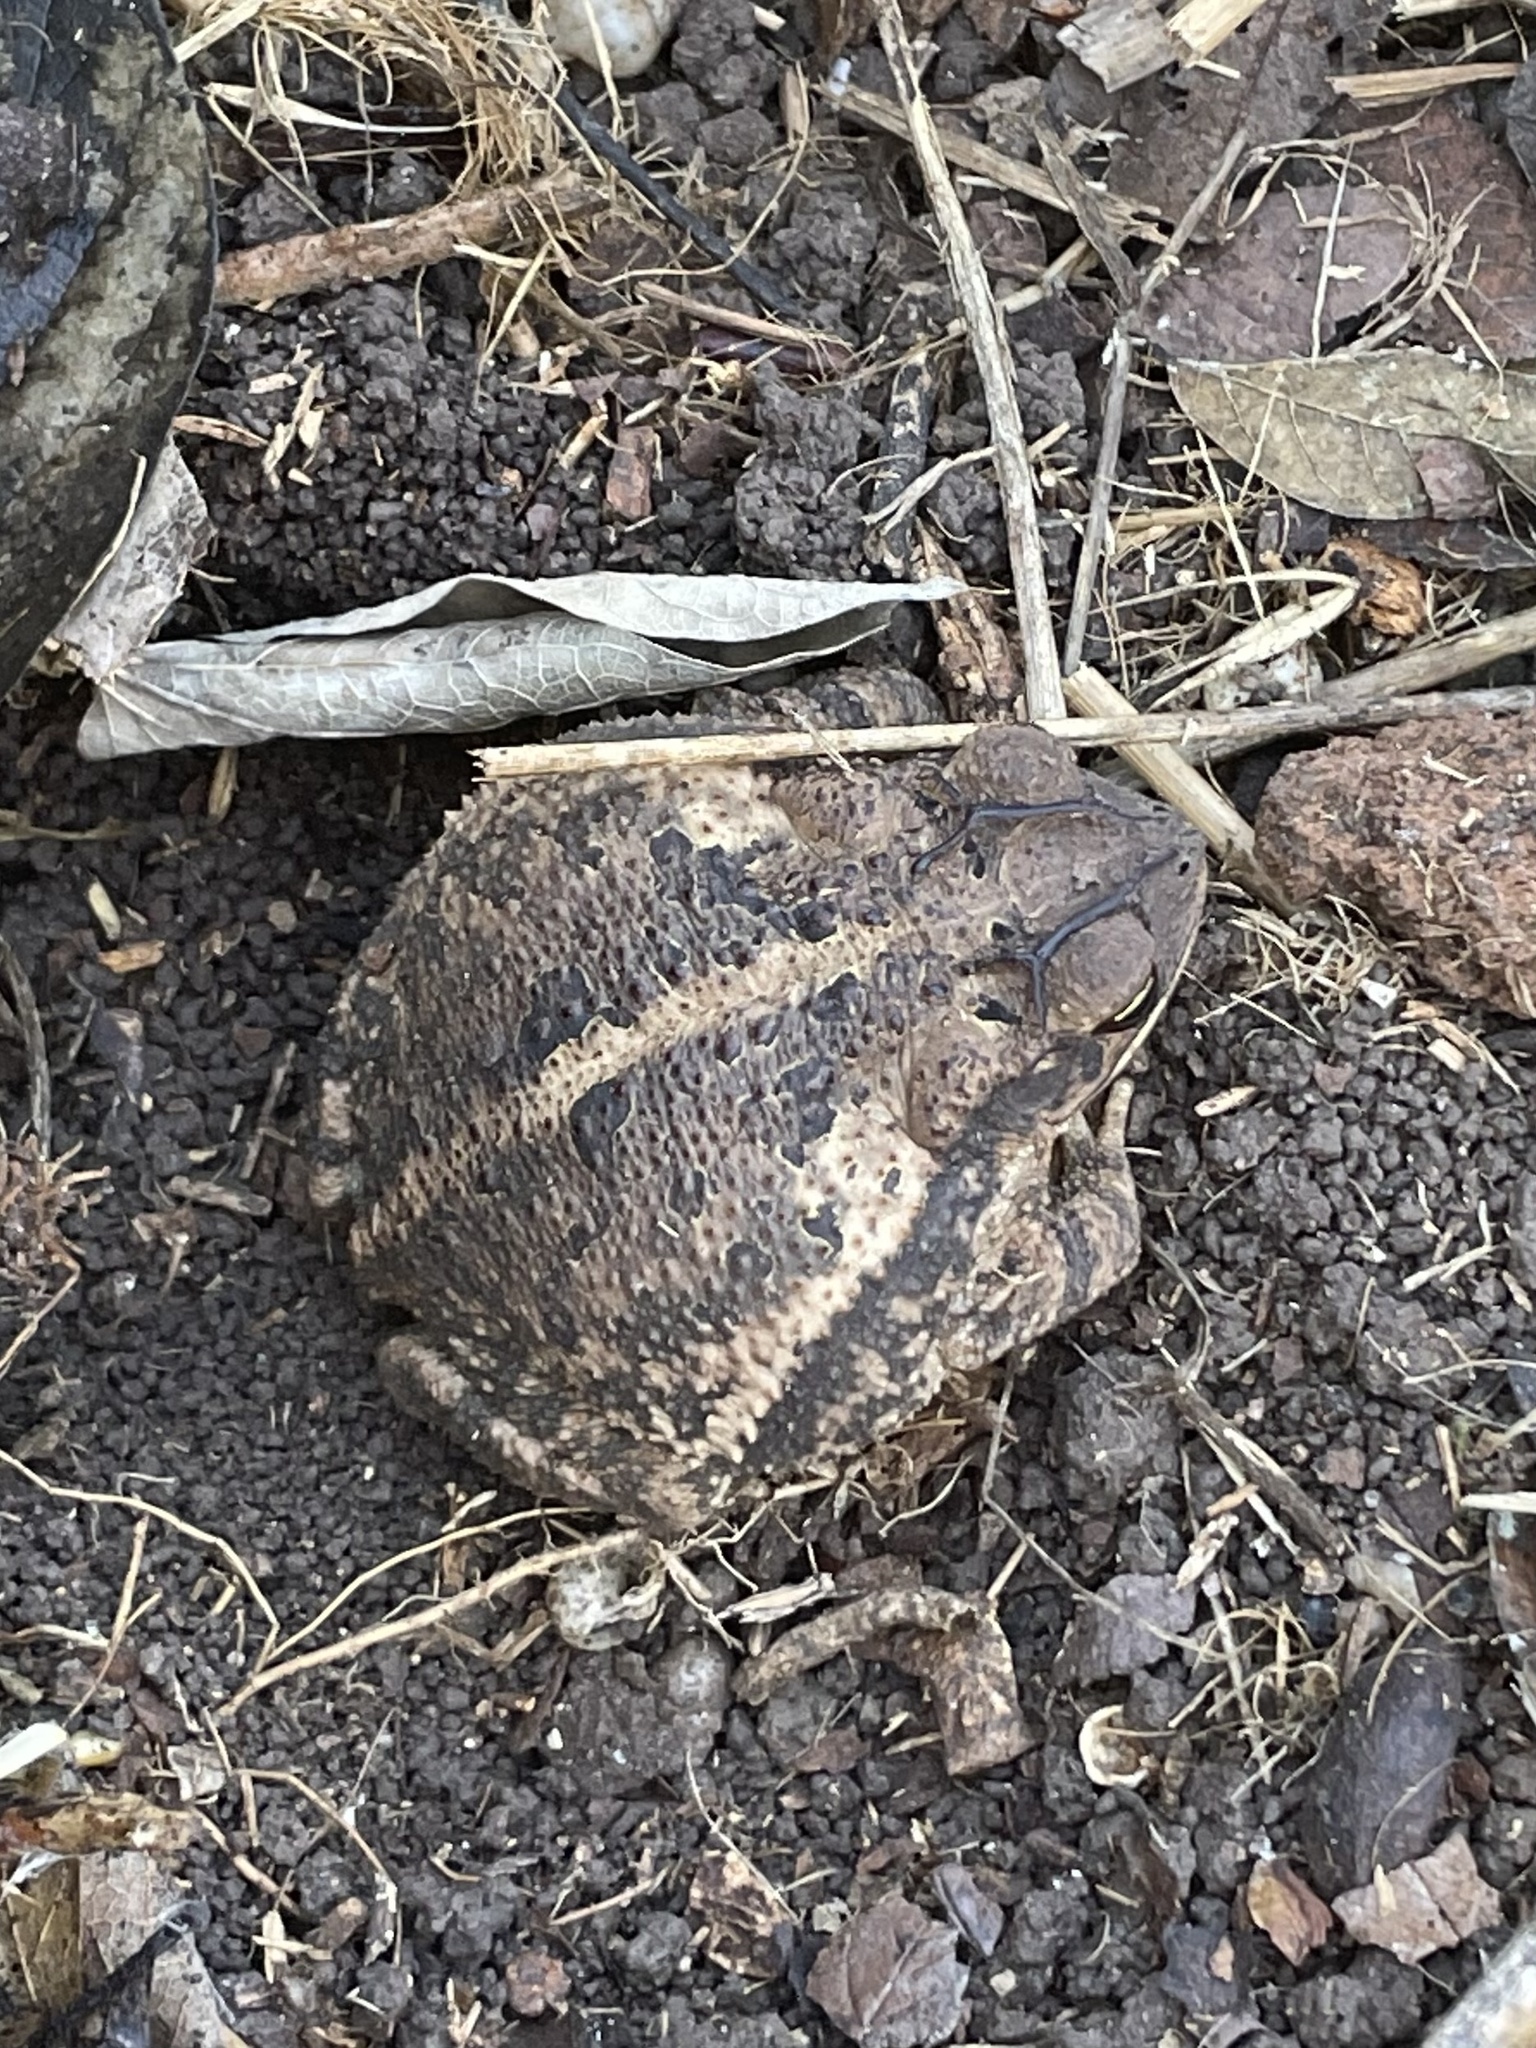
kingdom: Animalia
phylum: Chordata
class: Amphibia
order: Anura
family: Bufonidae
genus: Incilius
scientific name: Incilius nebulifer
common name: Gulf coast toad
